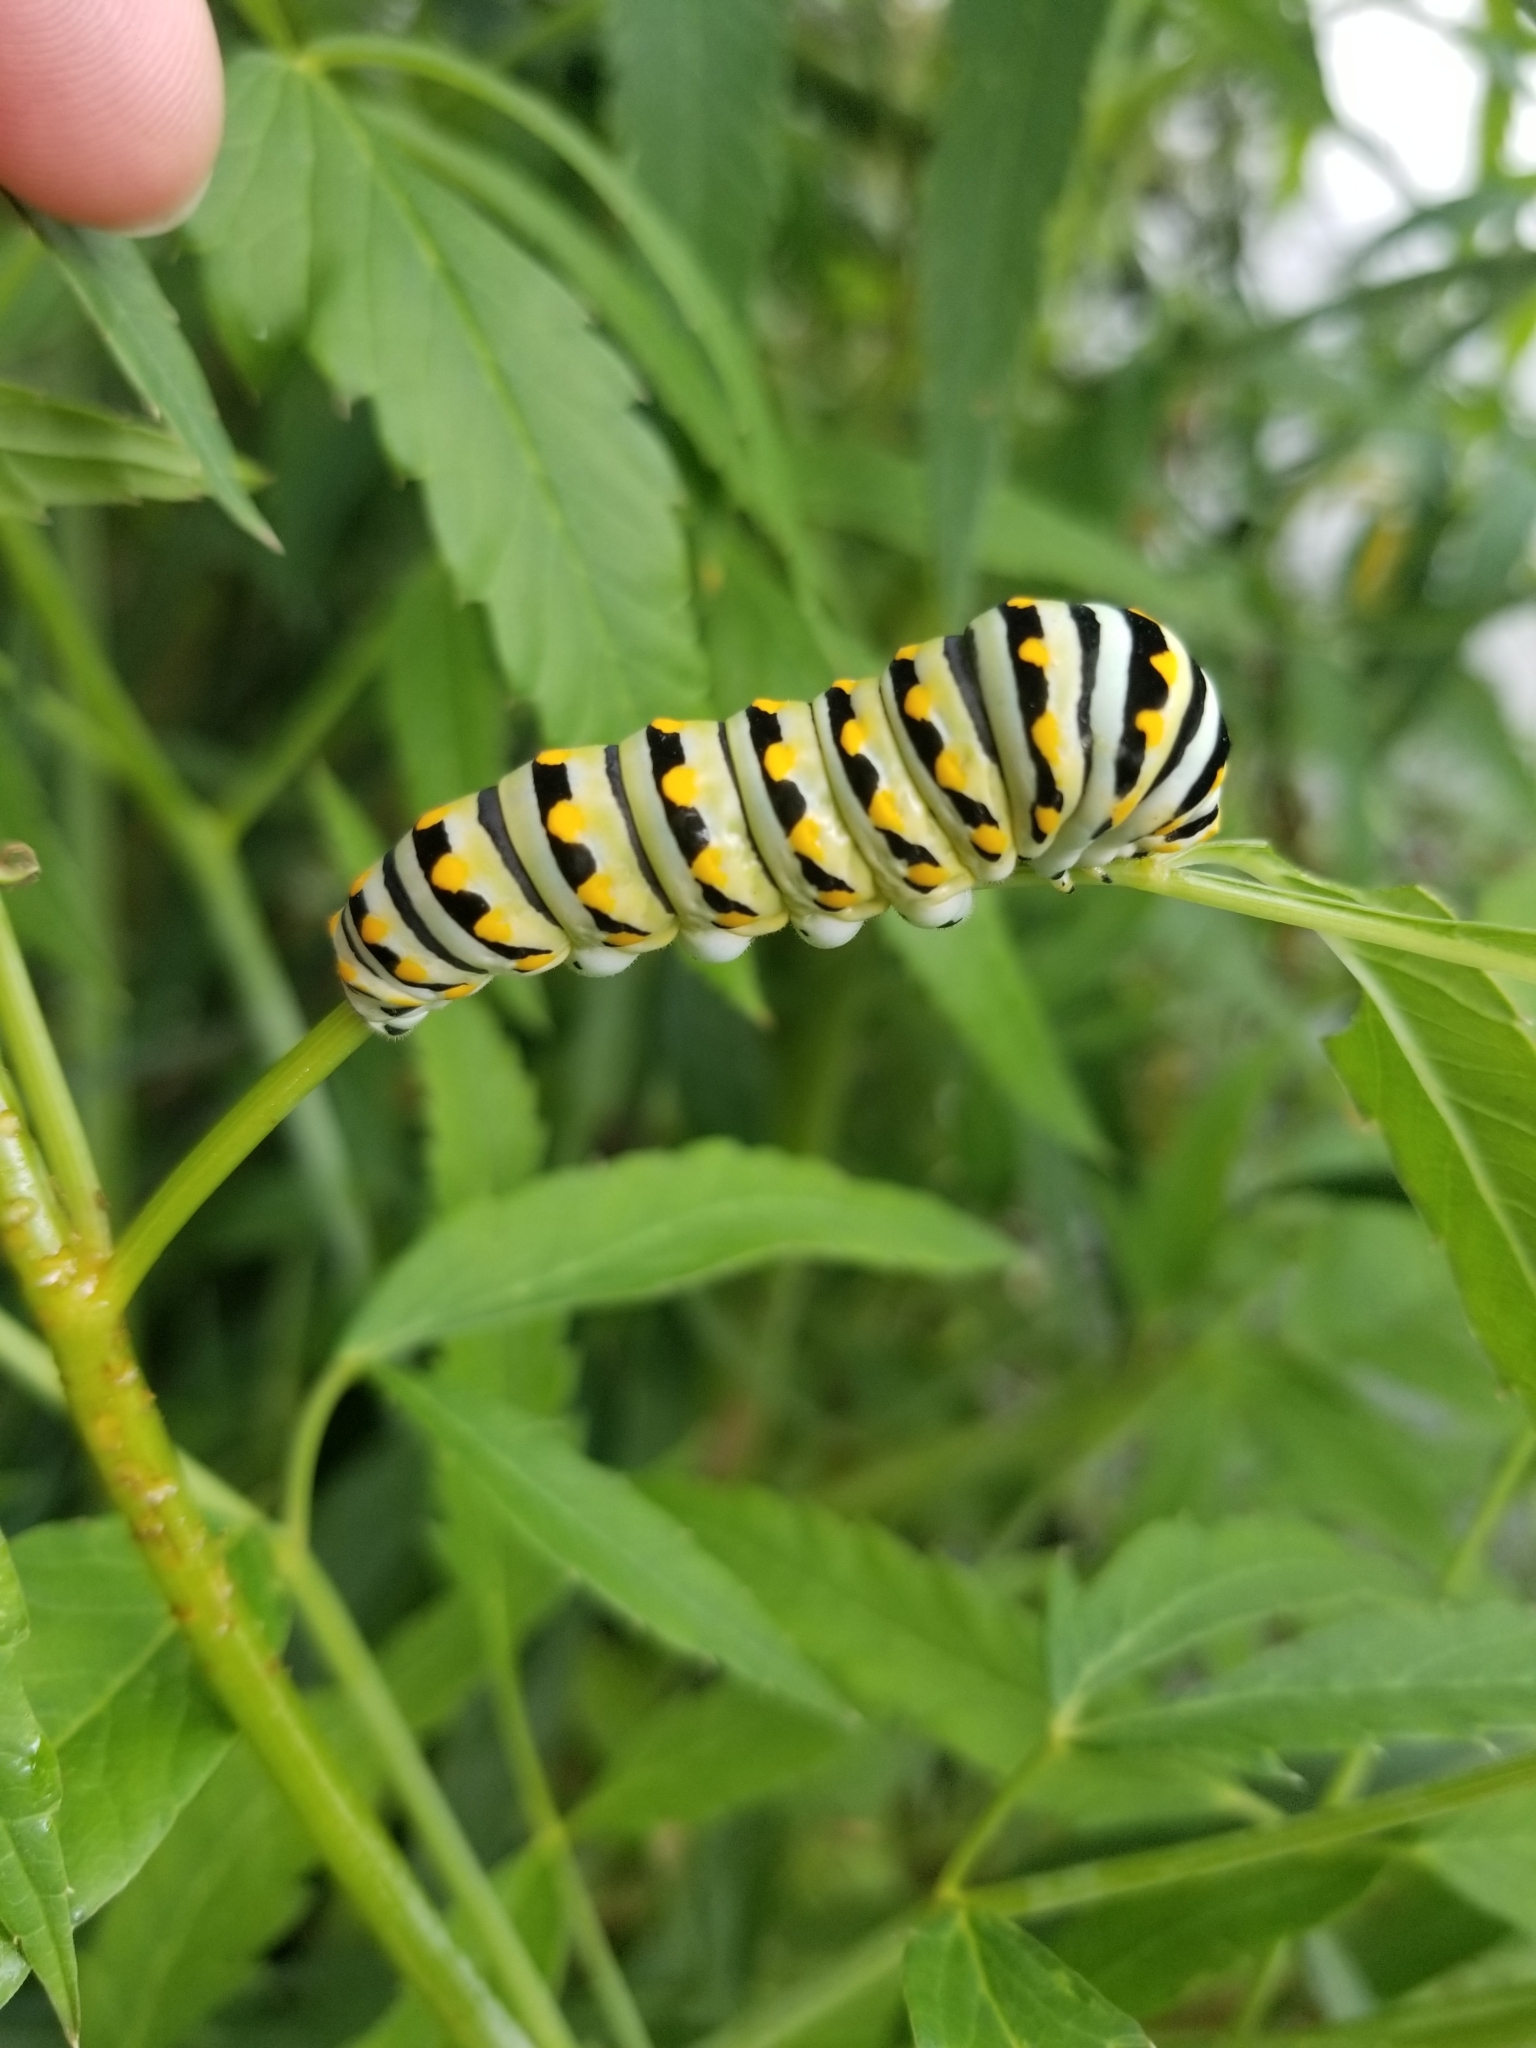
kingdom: Animalia
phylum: Arthropoda
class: Insecta
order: Lepidoptera
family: Papilionidae
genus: Papilio
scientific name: Papilio polyxenes
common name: Black swallowtail
